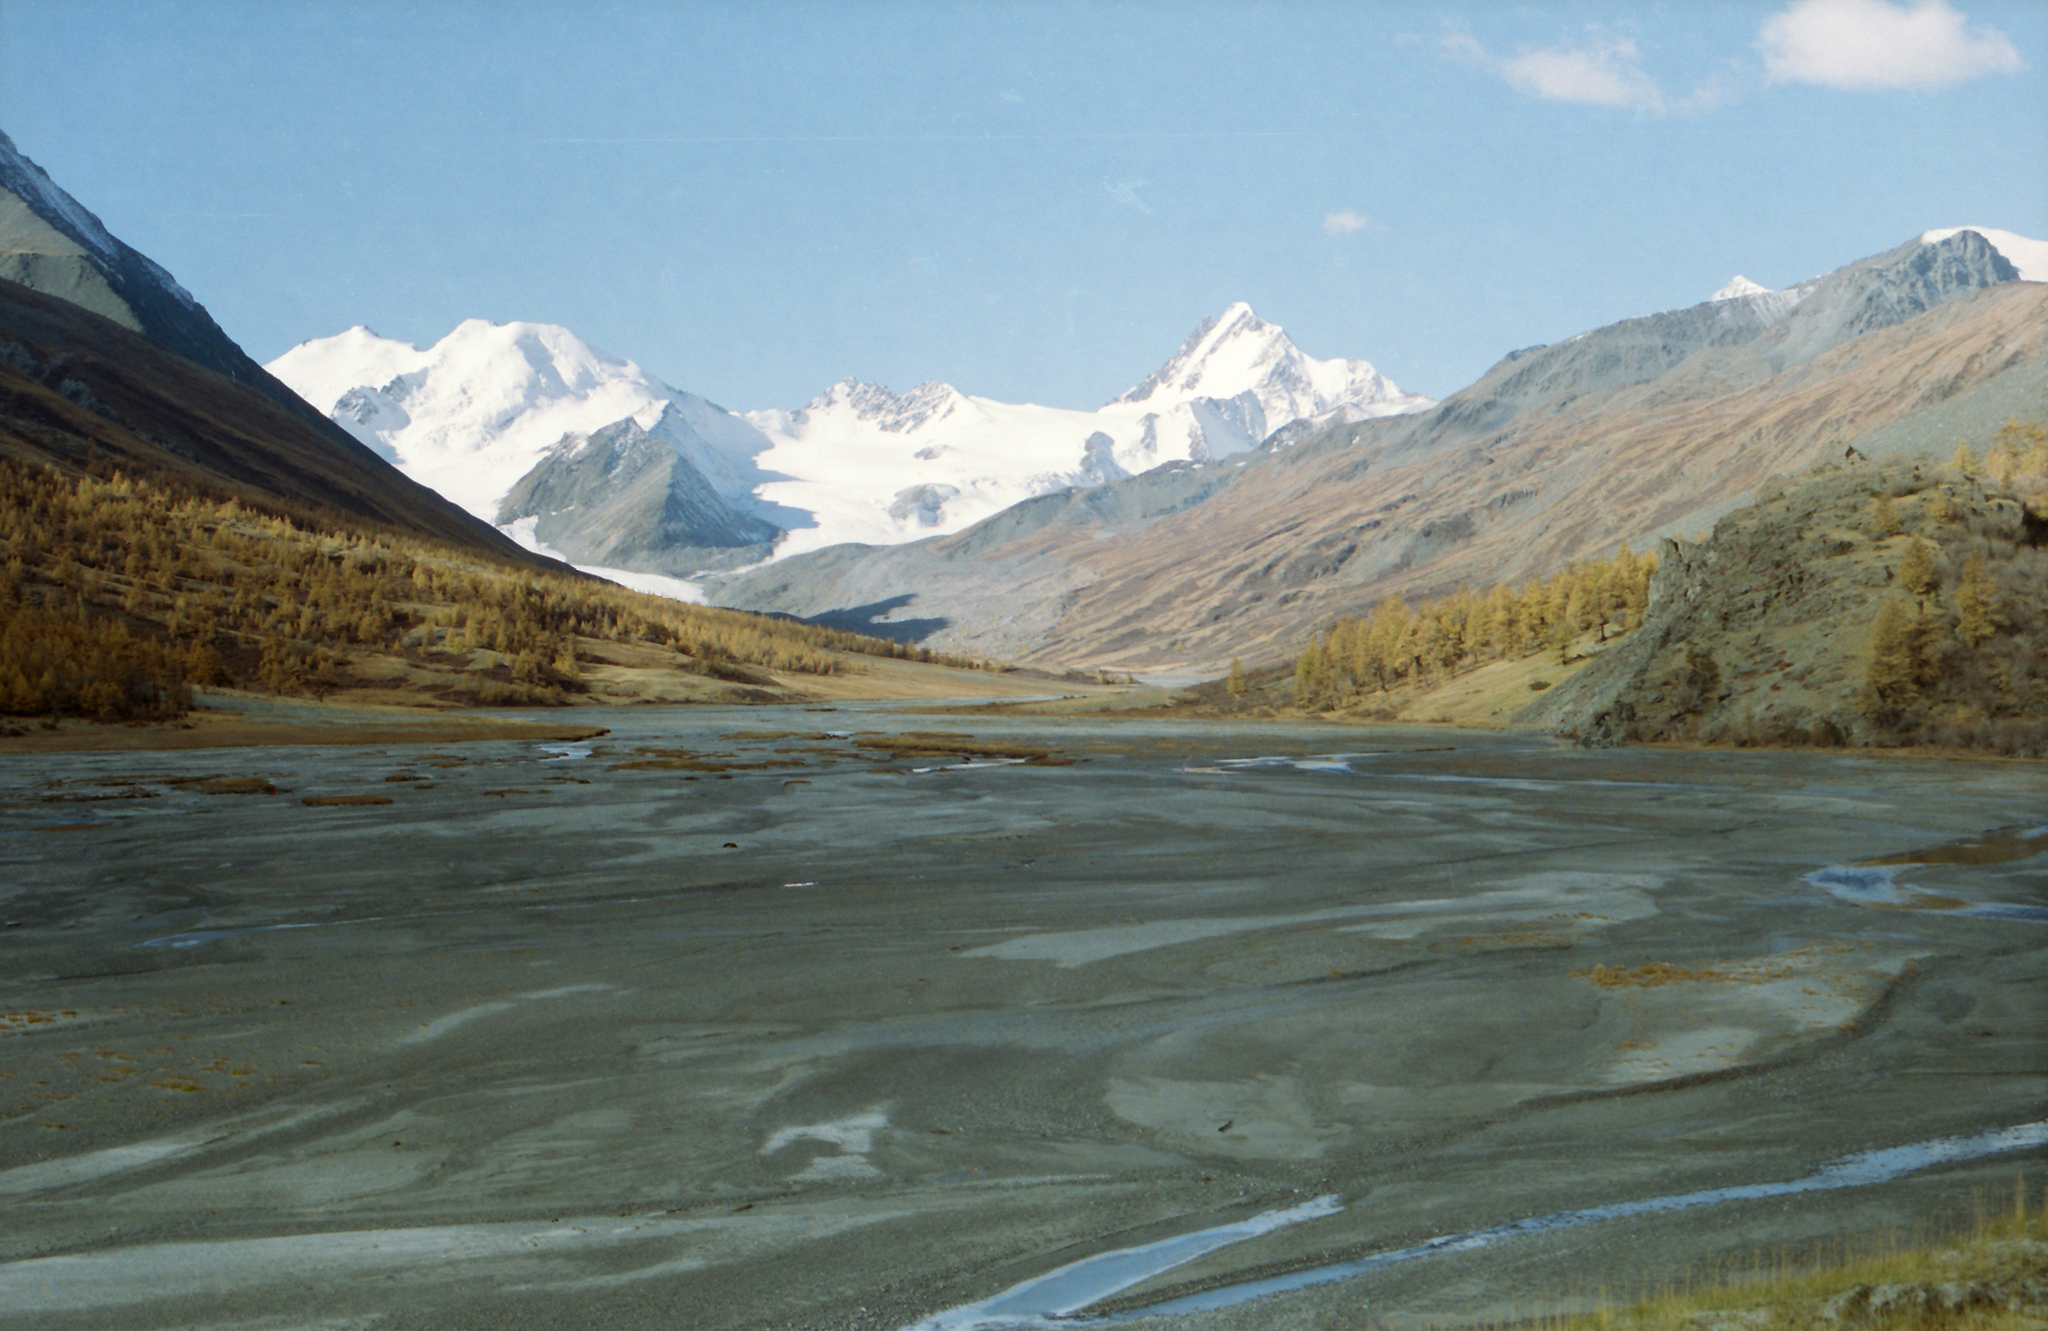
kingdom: Plantae
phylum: Tracheophyta
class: Pinopsida
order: Pinales
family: Pinaceae
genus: Larix
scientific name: Larix sibirica
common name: Siberian larch
